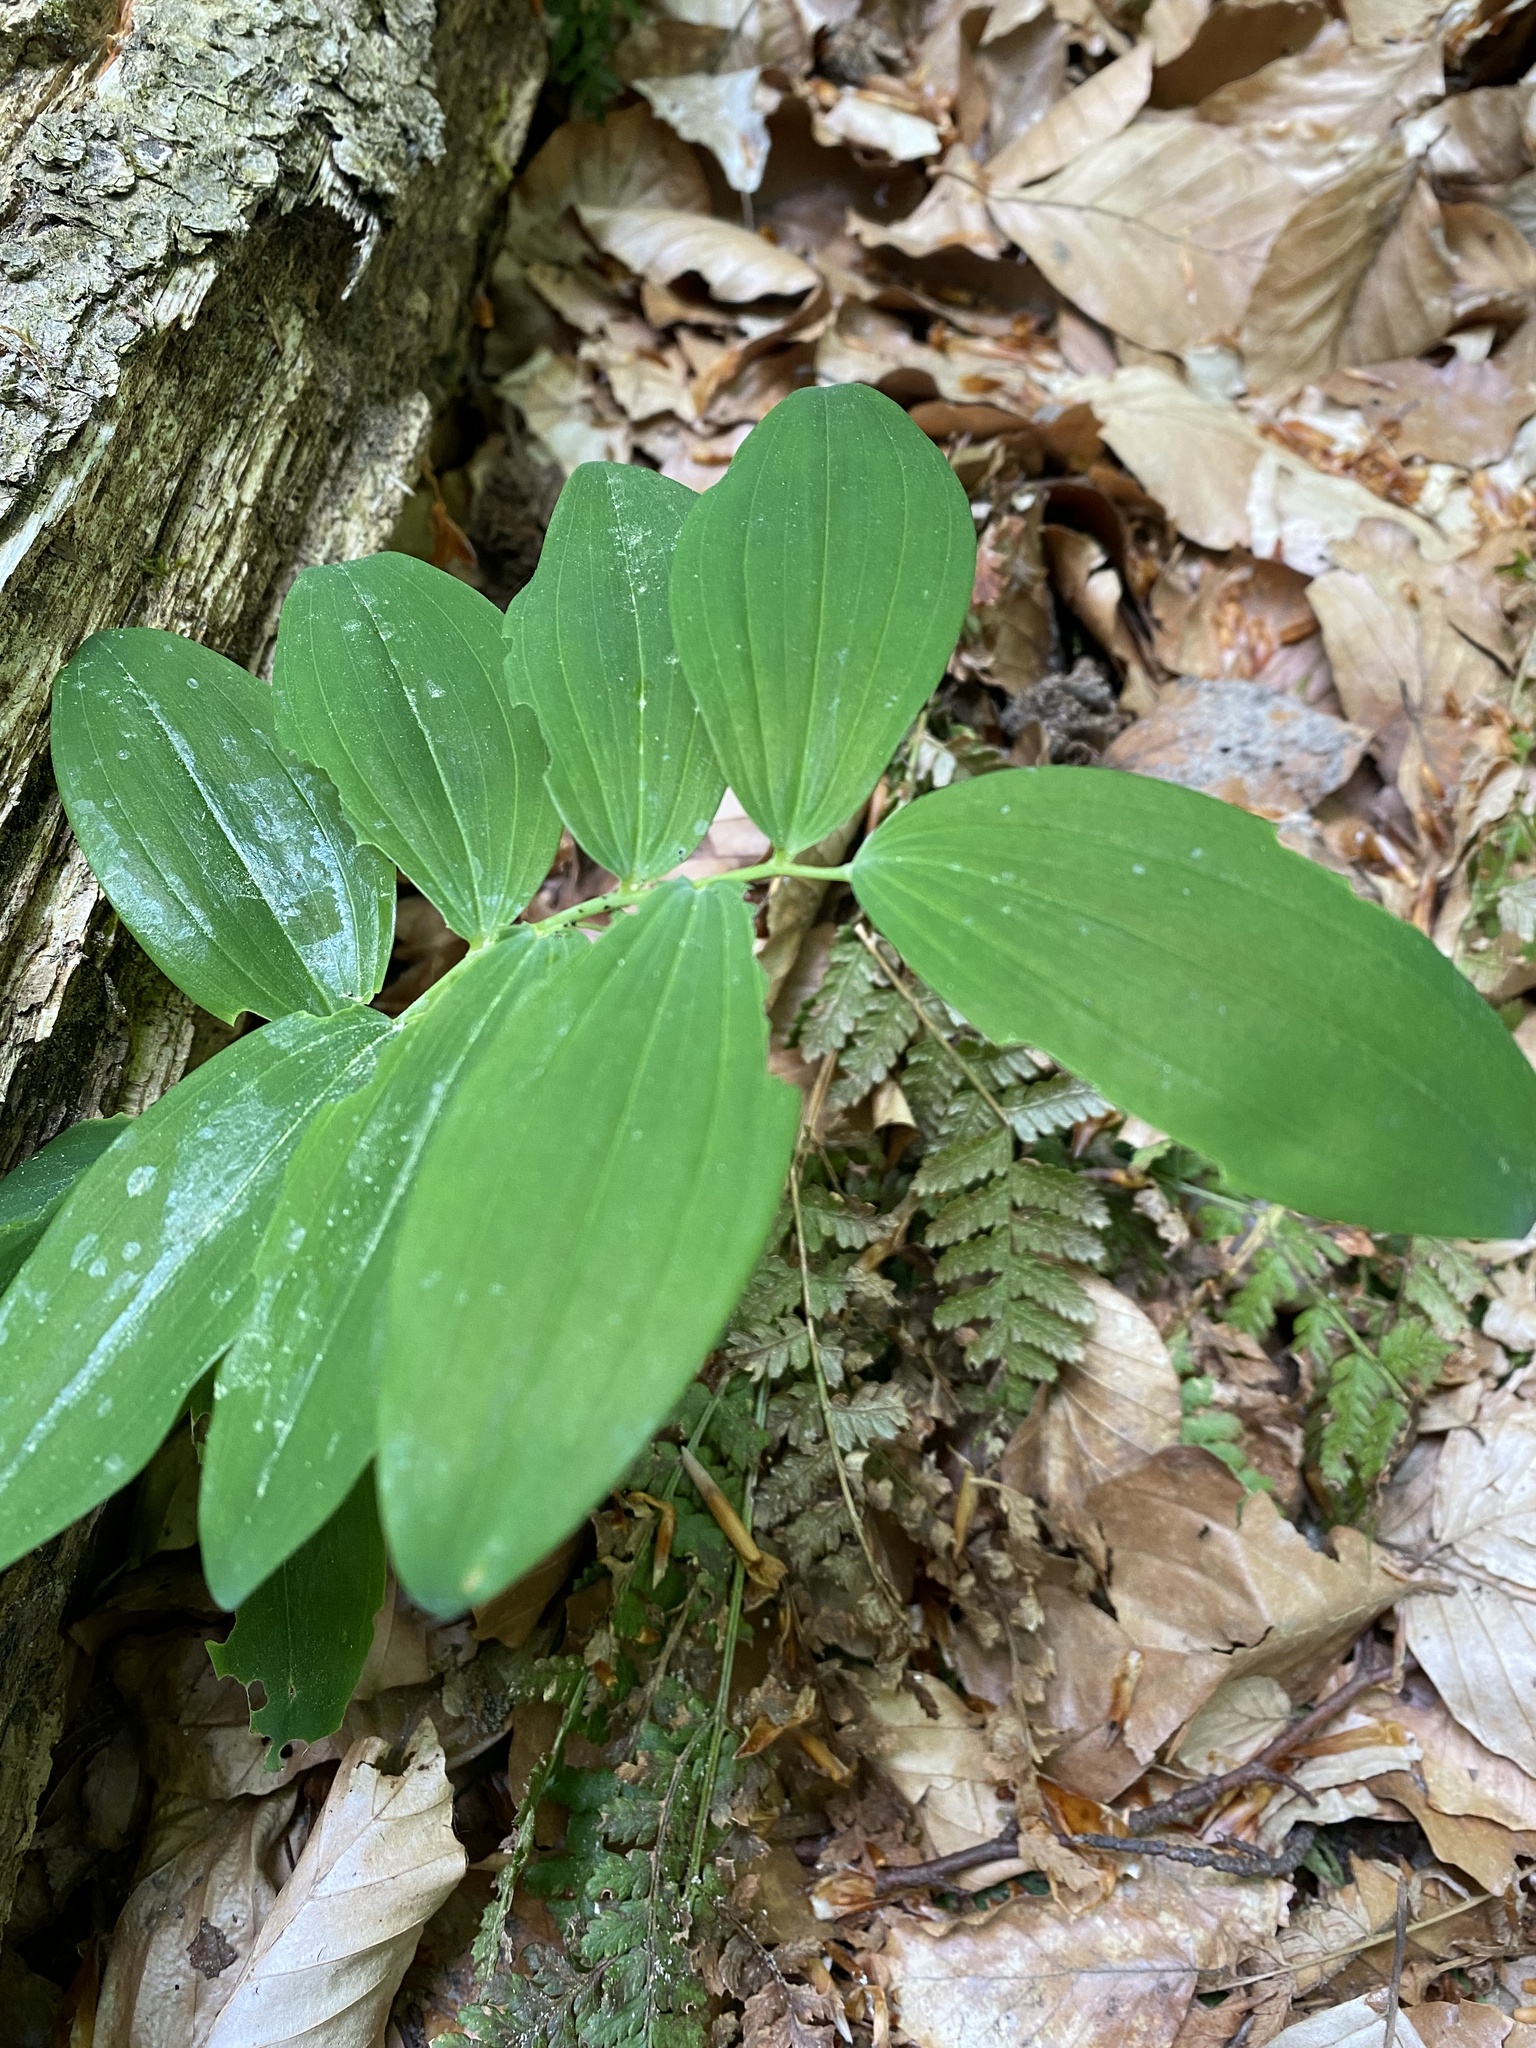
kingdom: Plantae
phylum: Tracheophyta
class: Liliopsida
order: Asparagales
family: Asparagaceae
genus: Polygonatum
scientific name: Polygonatum multiflorum
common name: Solomon's-seal
